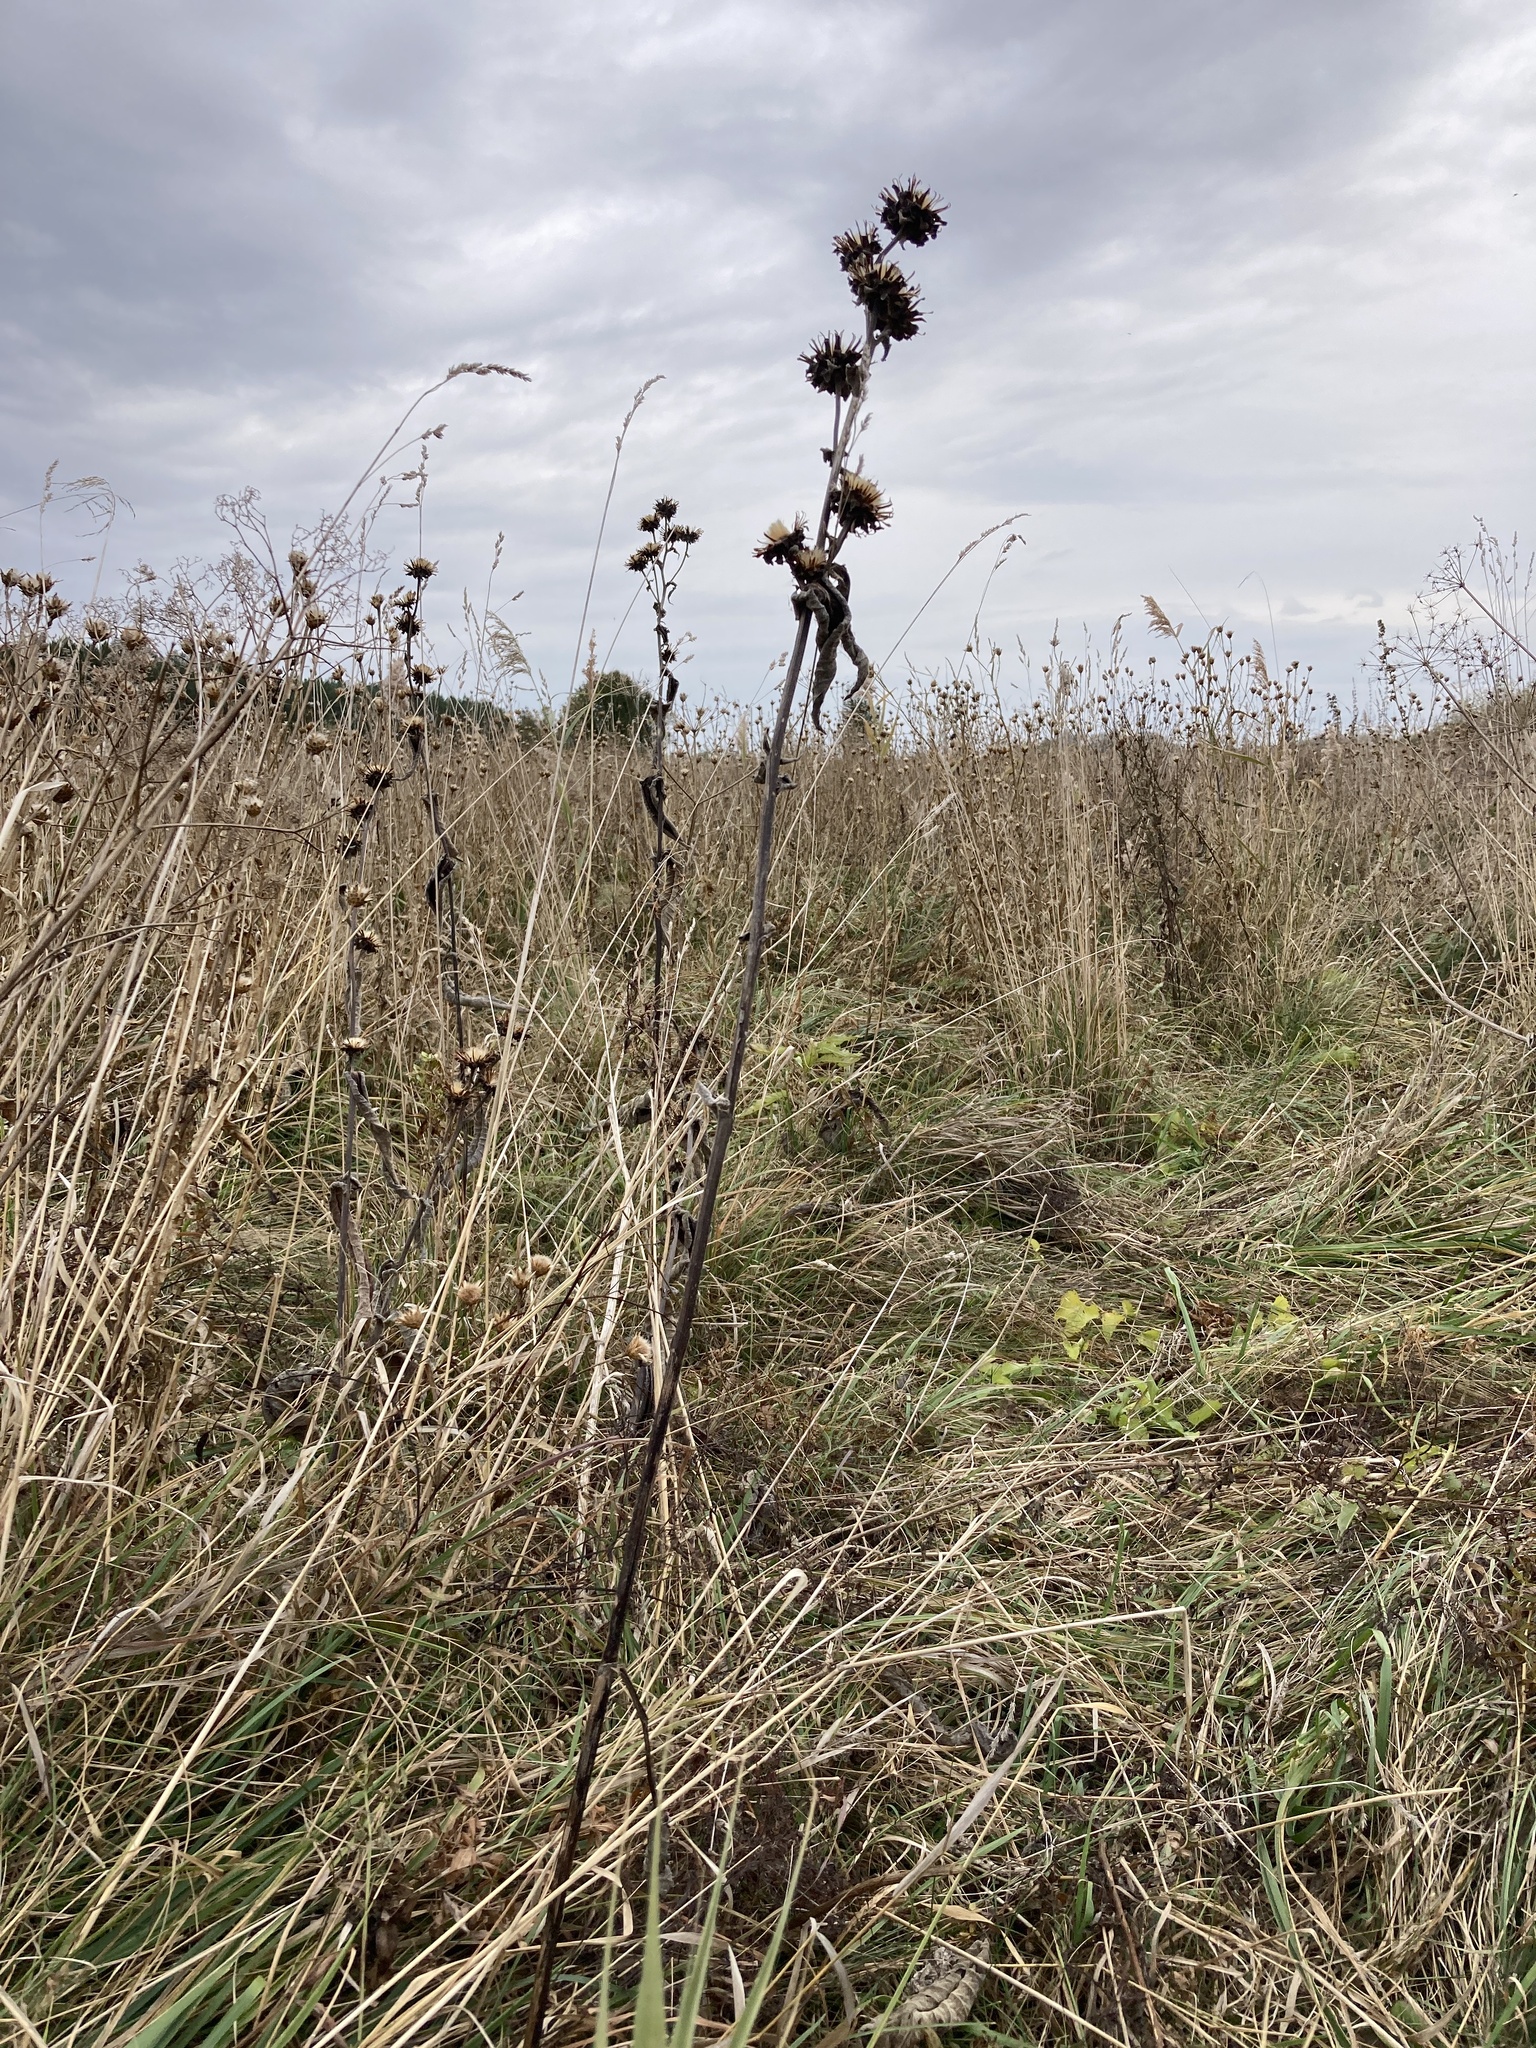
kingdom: Plantae
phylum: Tracheophyta
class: Magnoliopsida
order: Asterales
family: Asteraceae
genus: Inula
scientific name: Inula helenium
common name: Elecampane
